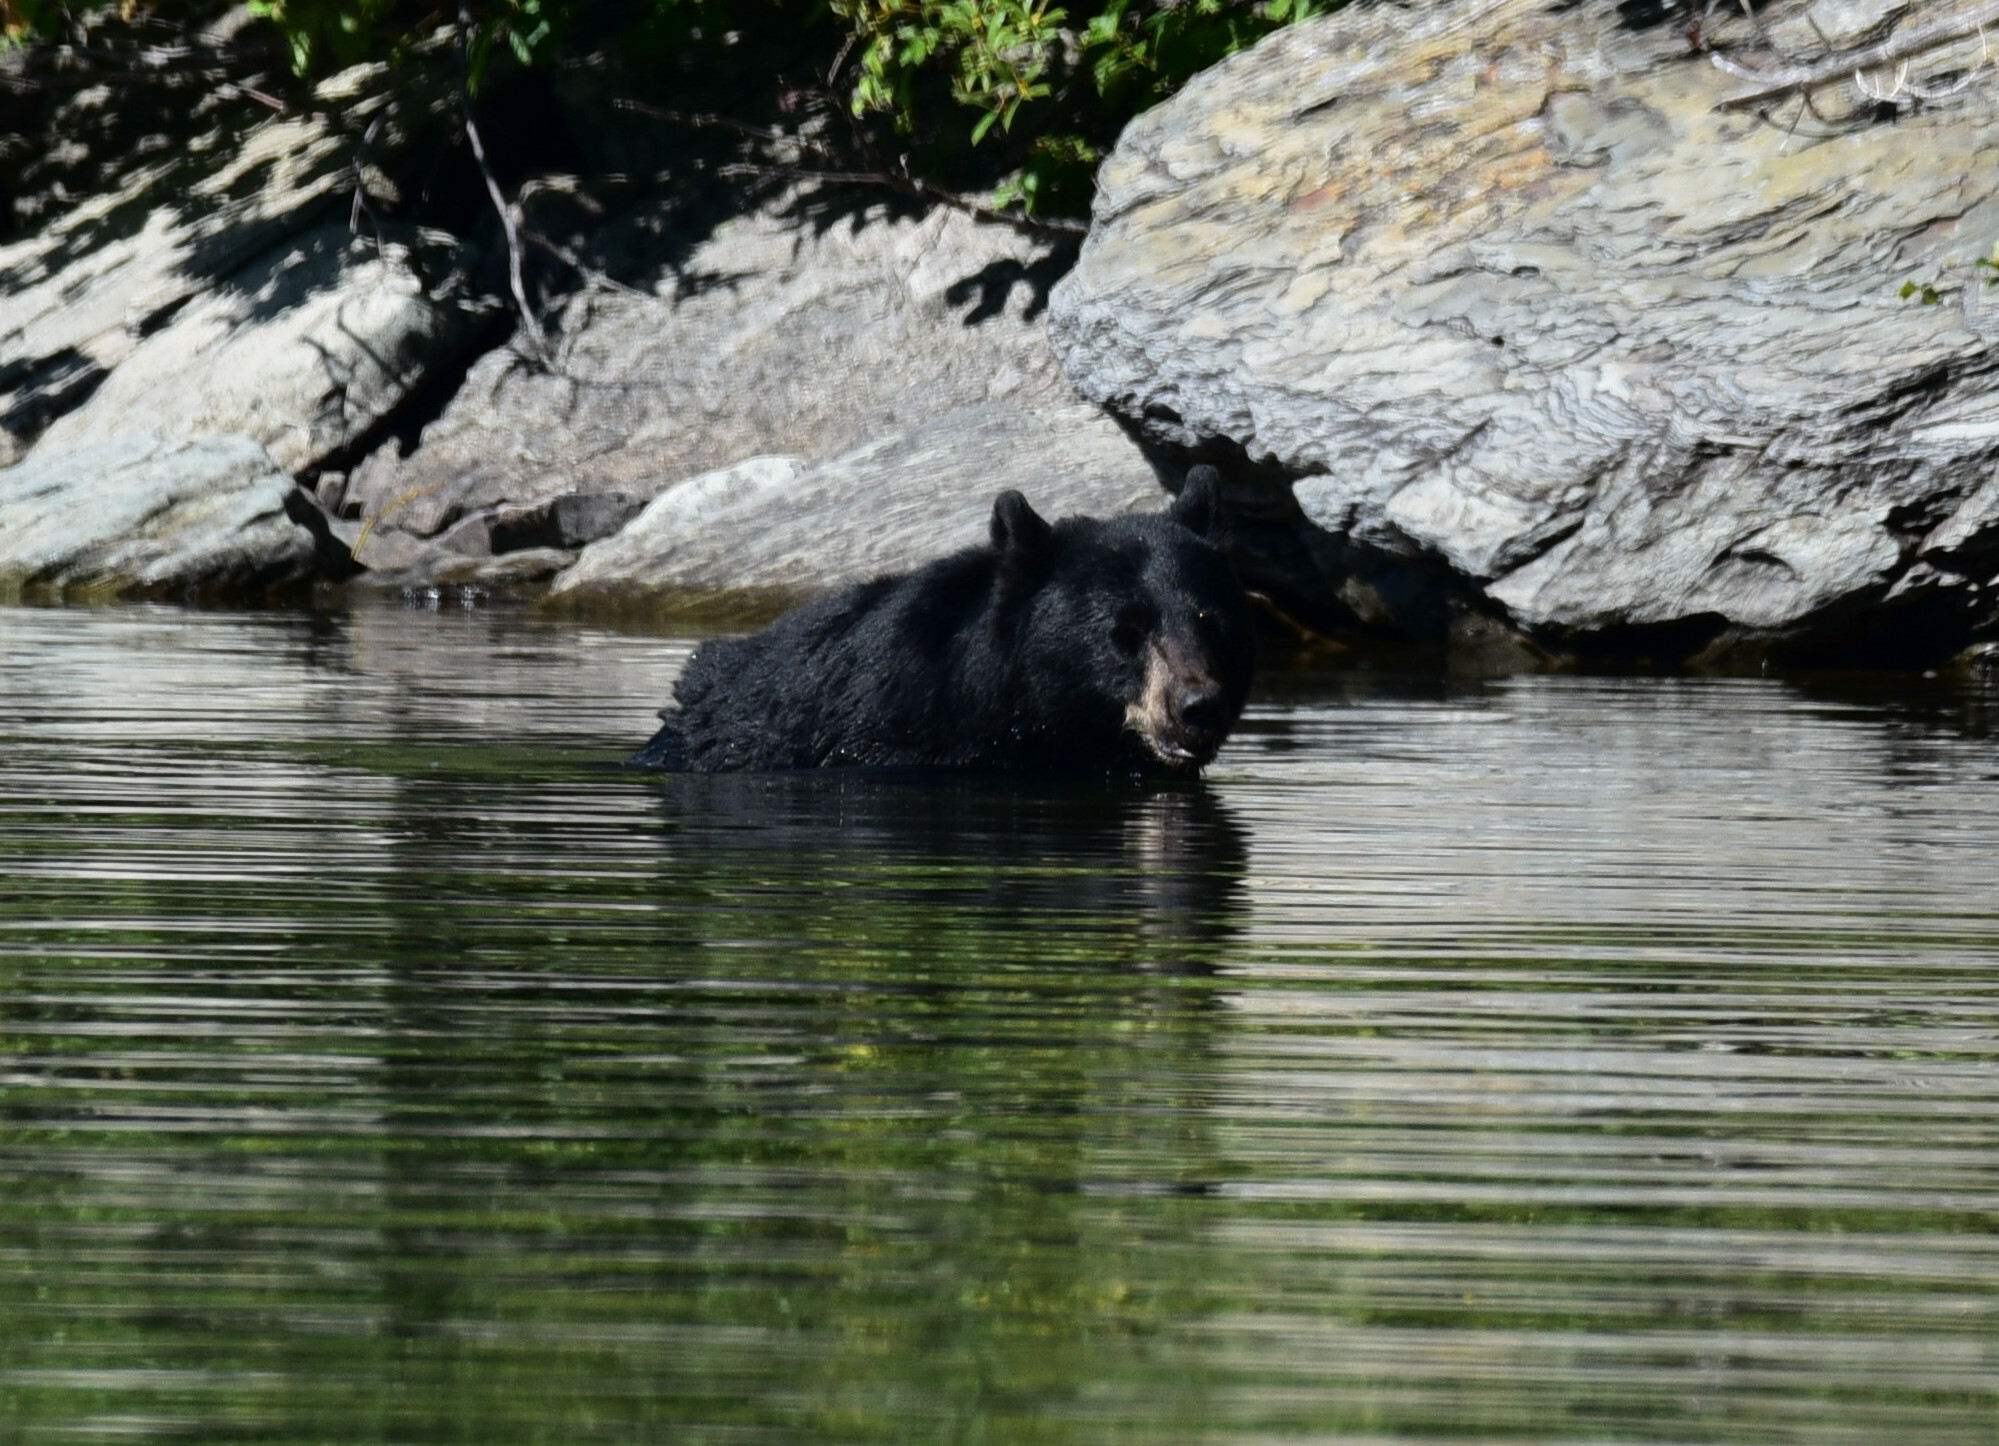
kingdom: Animalia
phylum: Chordata
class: Mammalia
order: Carnivora
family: Ursidae
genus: Ursus
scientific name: Ursus americanus
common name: American black bear
